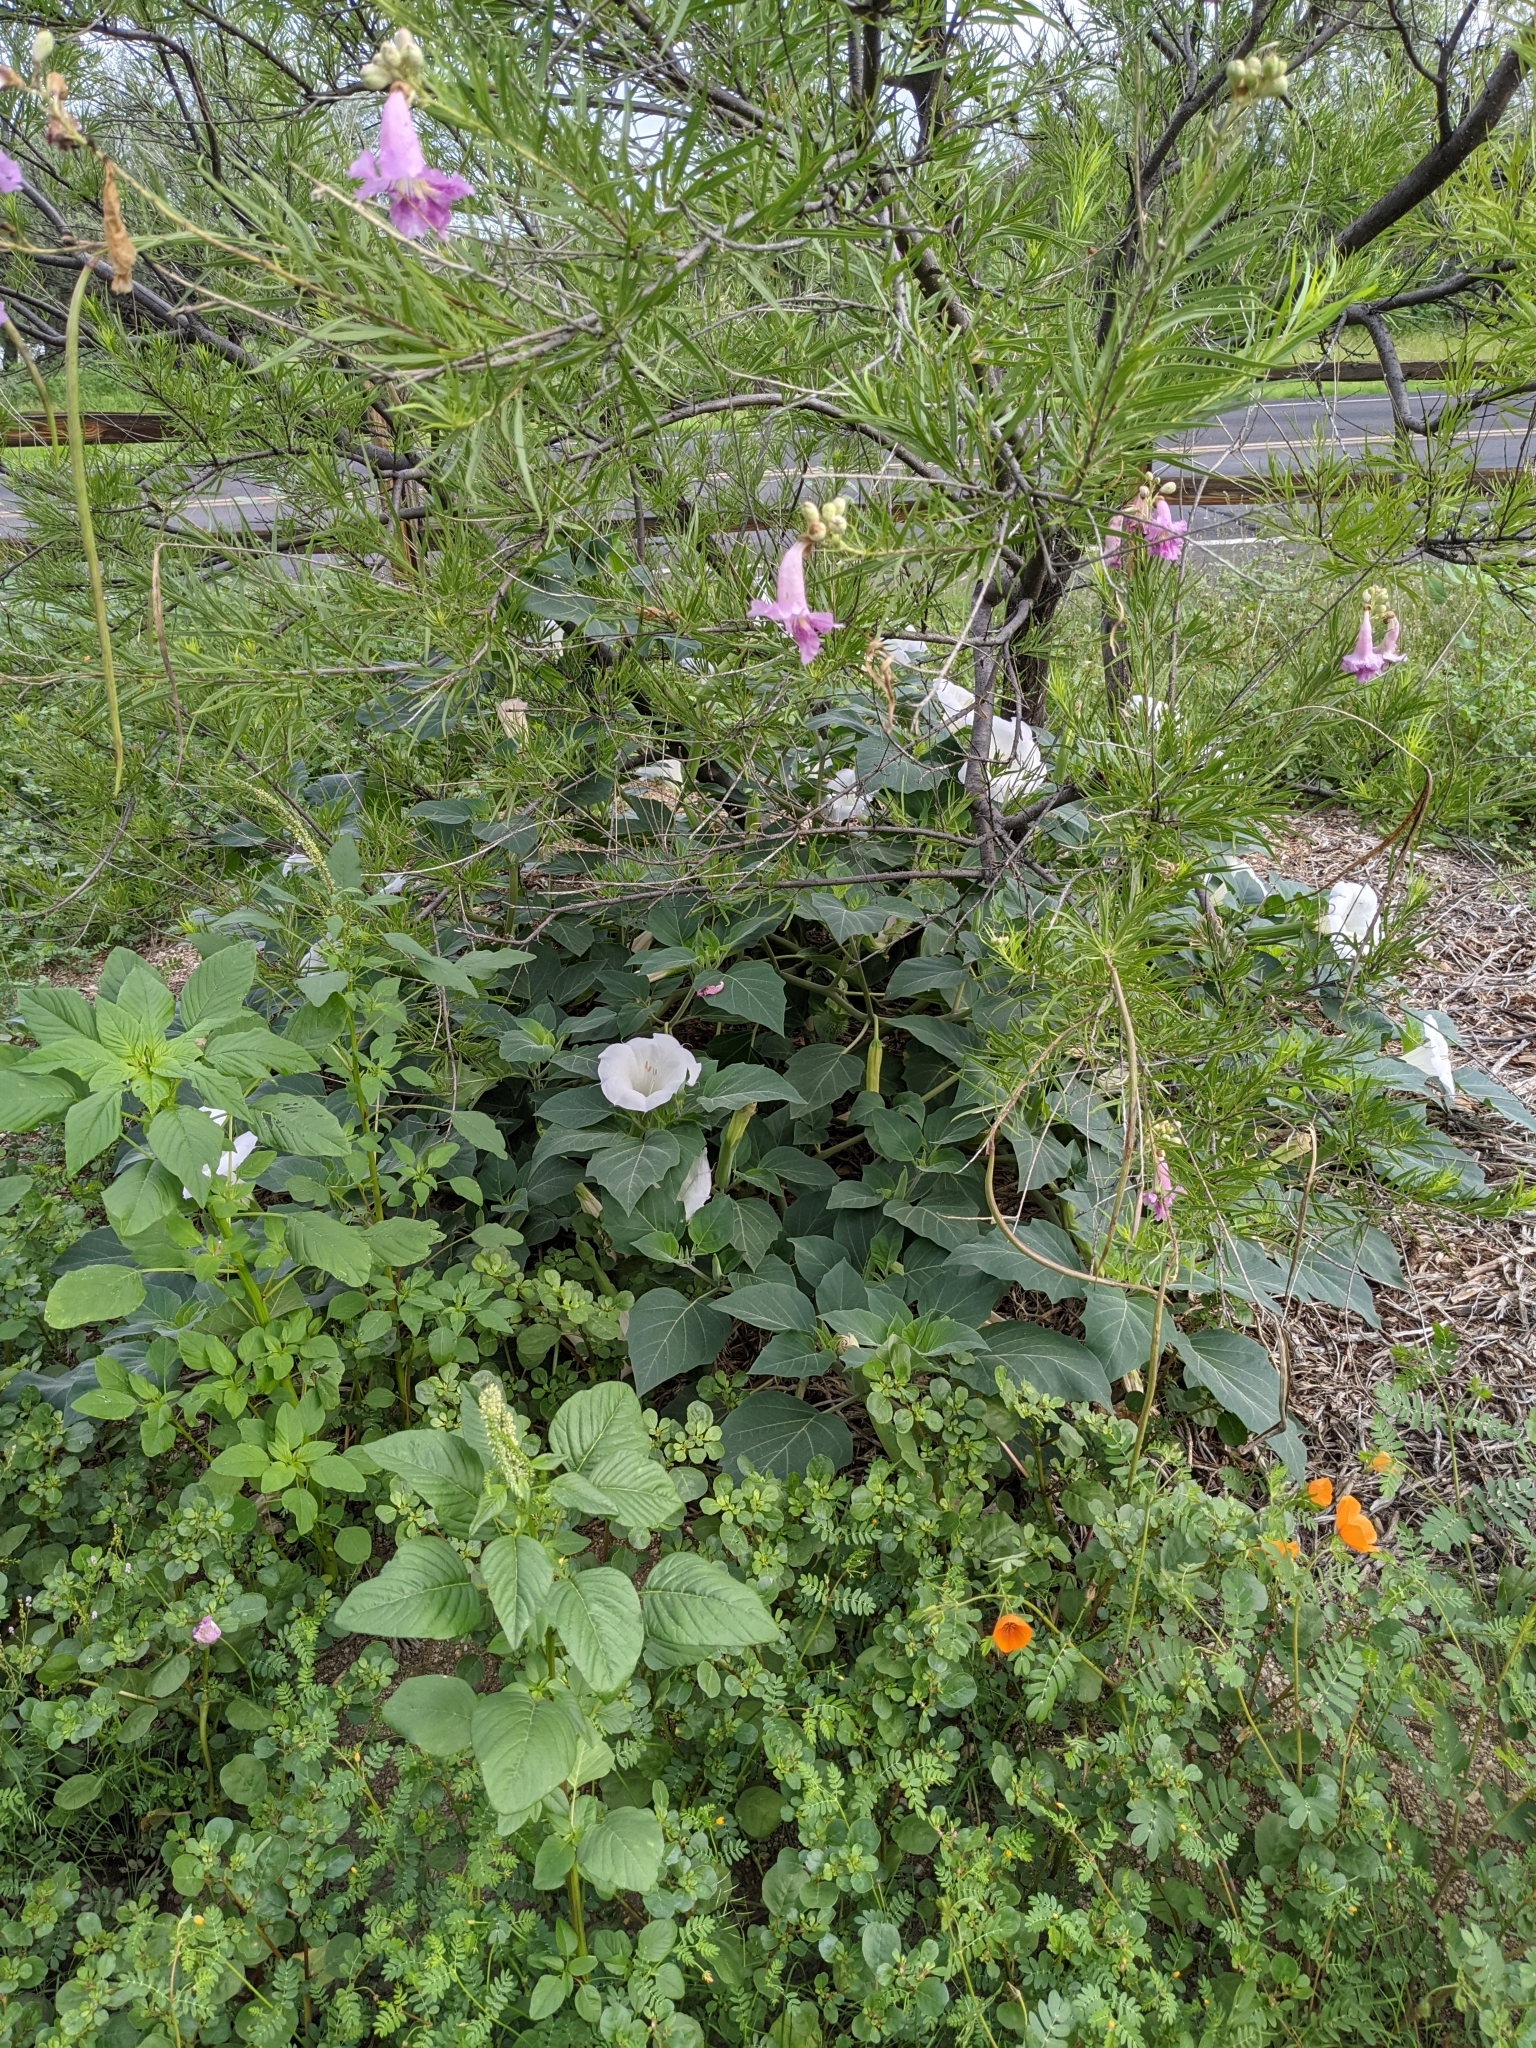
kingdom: Plantae
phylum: Tracheophyta
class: Magnoliopsida
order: Solanales
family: Solanaceae
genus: Datura
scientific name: Datura wrightii
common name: Sacred thorn-apple
